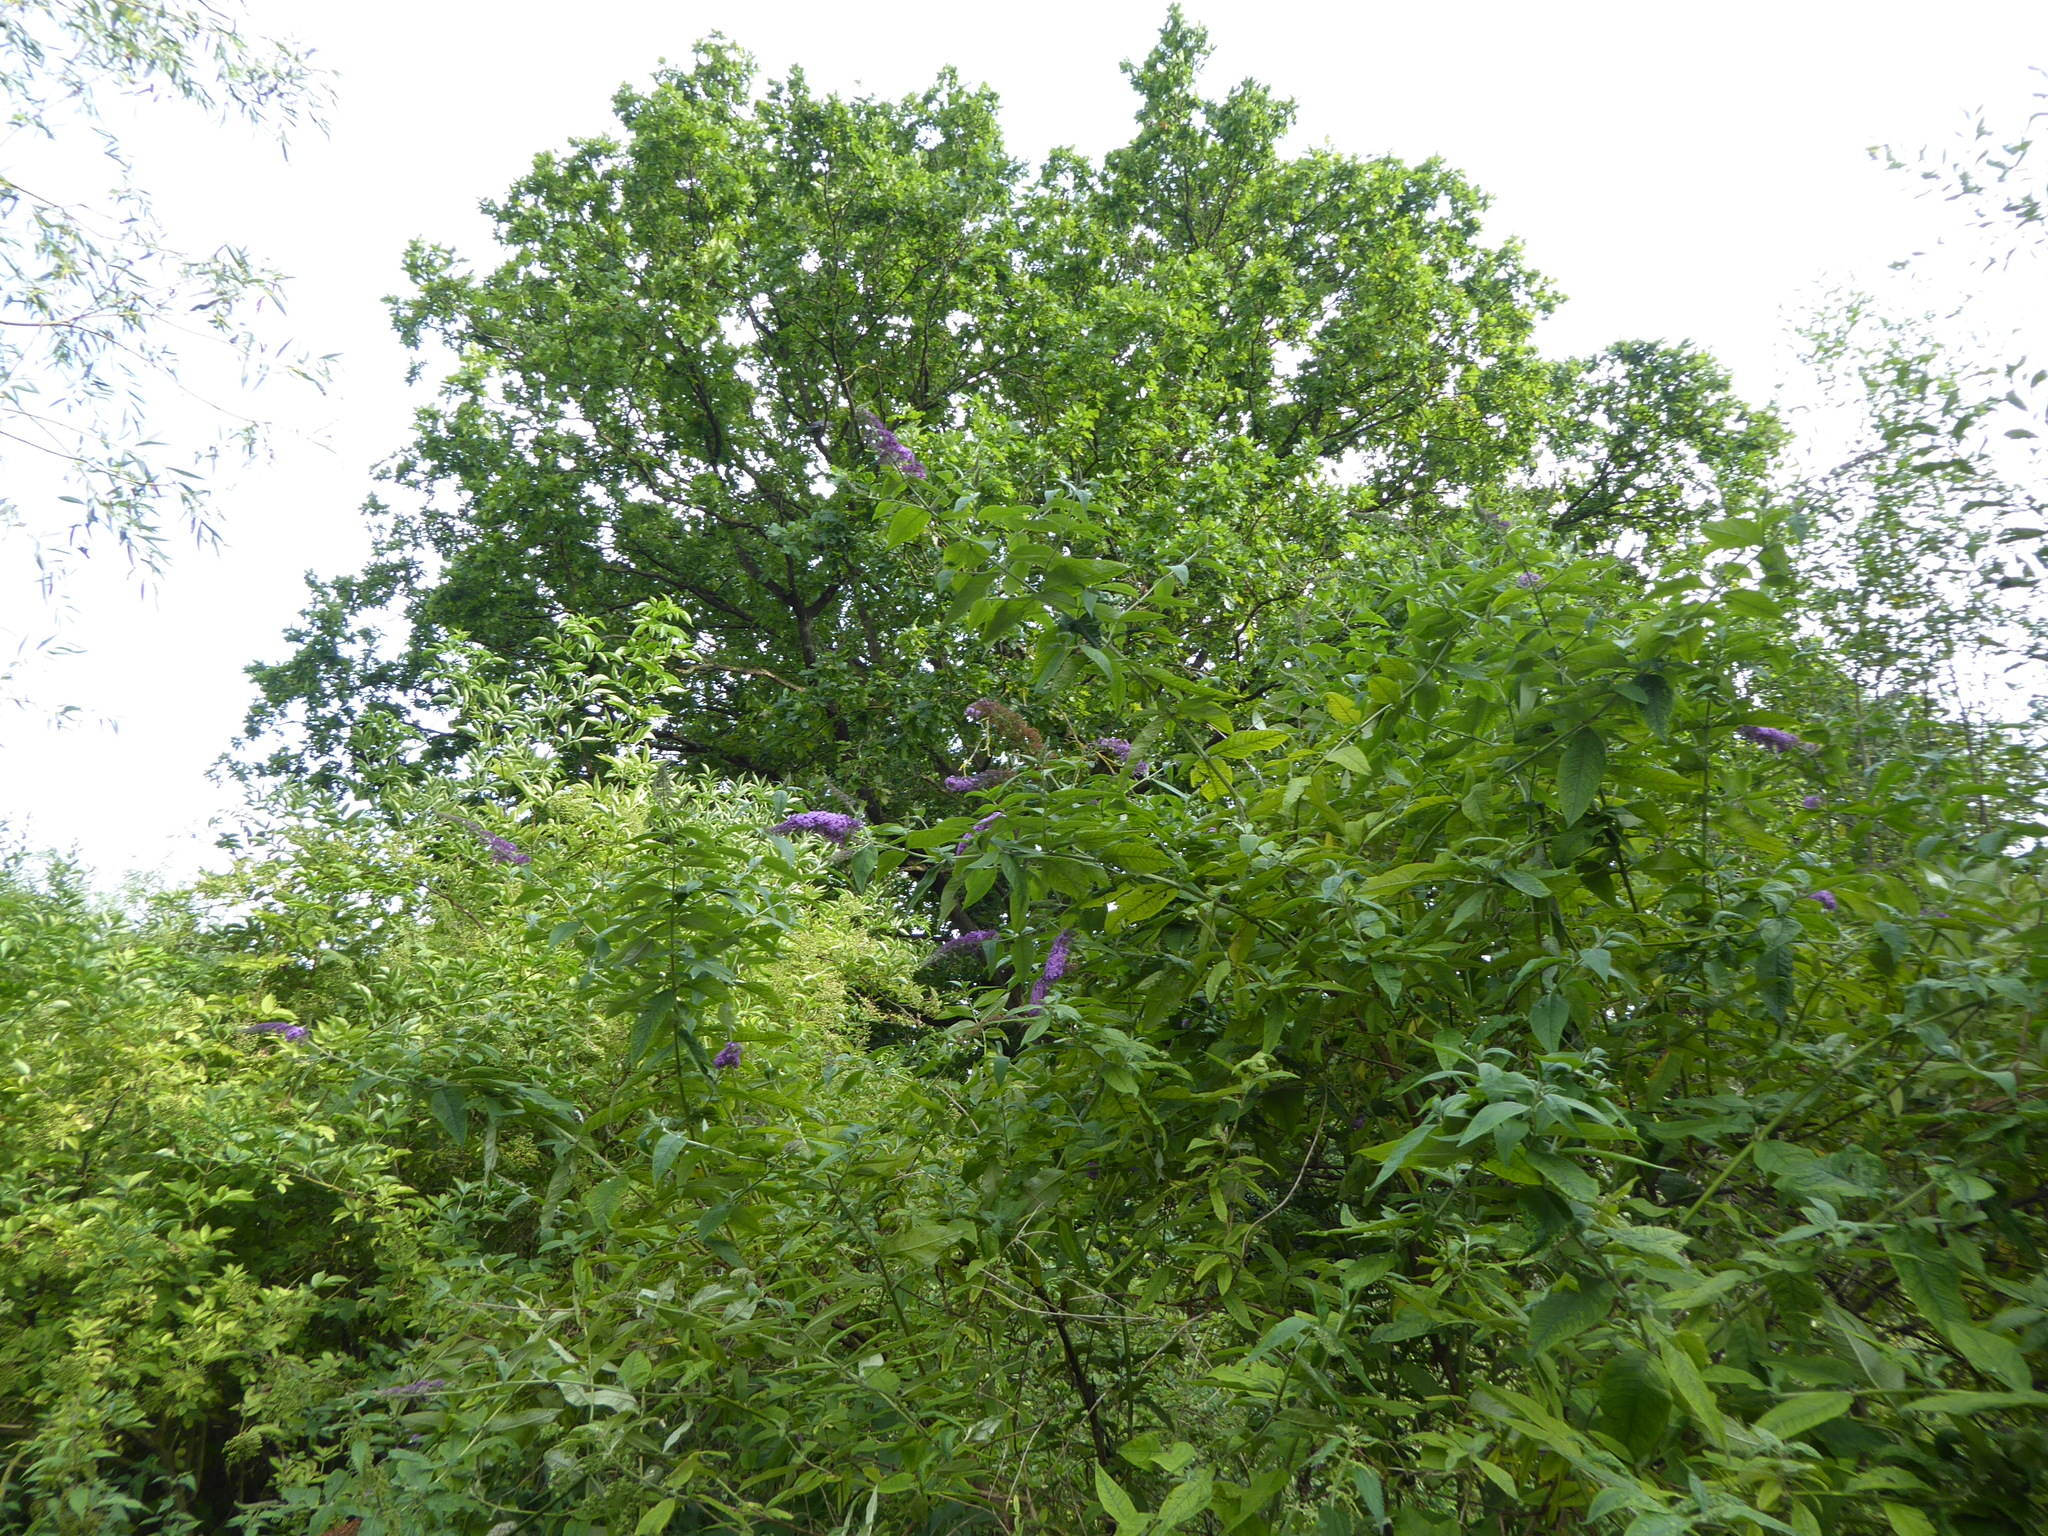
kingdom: Plantae
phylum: Tracheophyta
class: Magnoliopsida
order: Lamiales
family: Scrophulariaceae
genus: Buddleja
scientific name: Buddleja davidii
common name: Butterfly-bush
